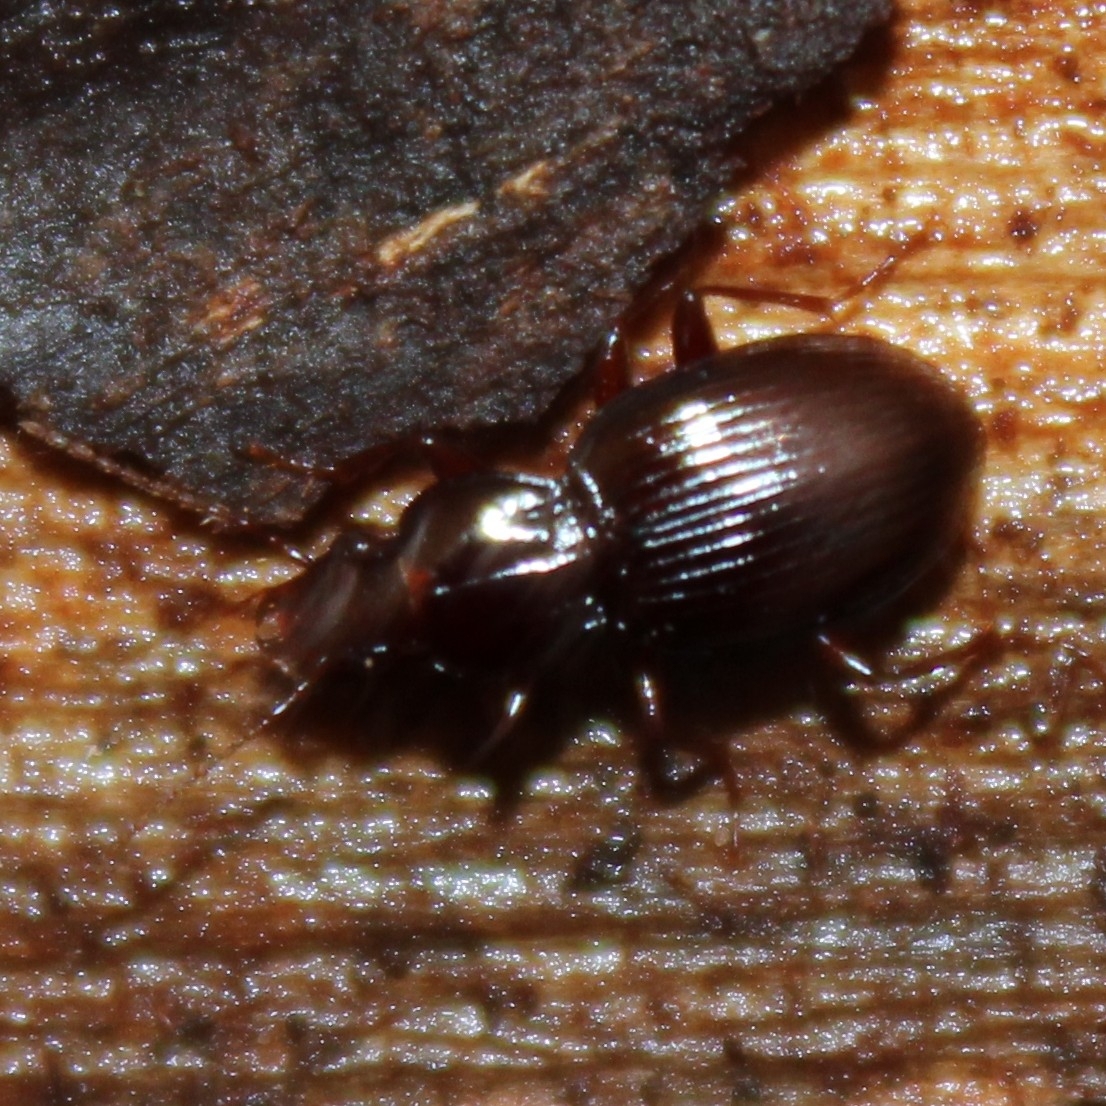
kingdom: Animalia
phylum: Arthropoda
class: Insecta
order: Coleoptera
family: Carabidae
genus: Gastrellarius
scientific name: Gastrellarius honestus
